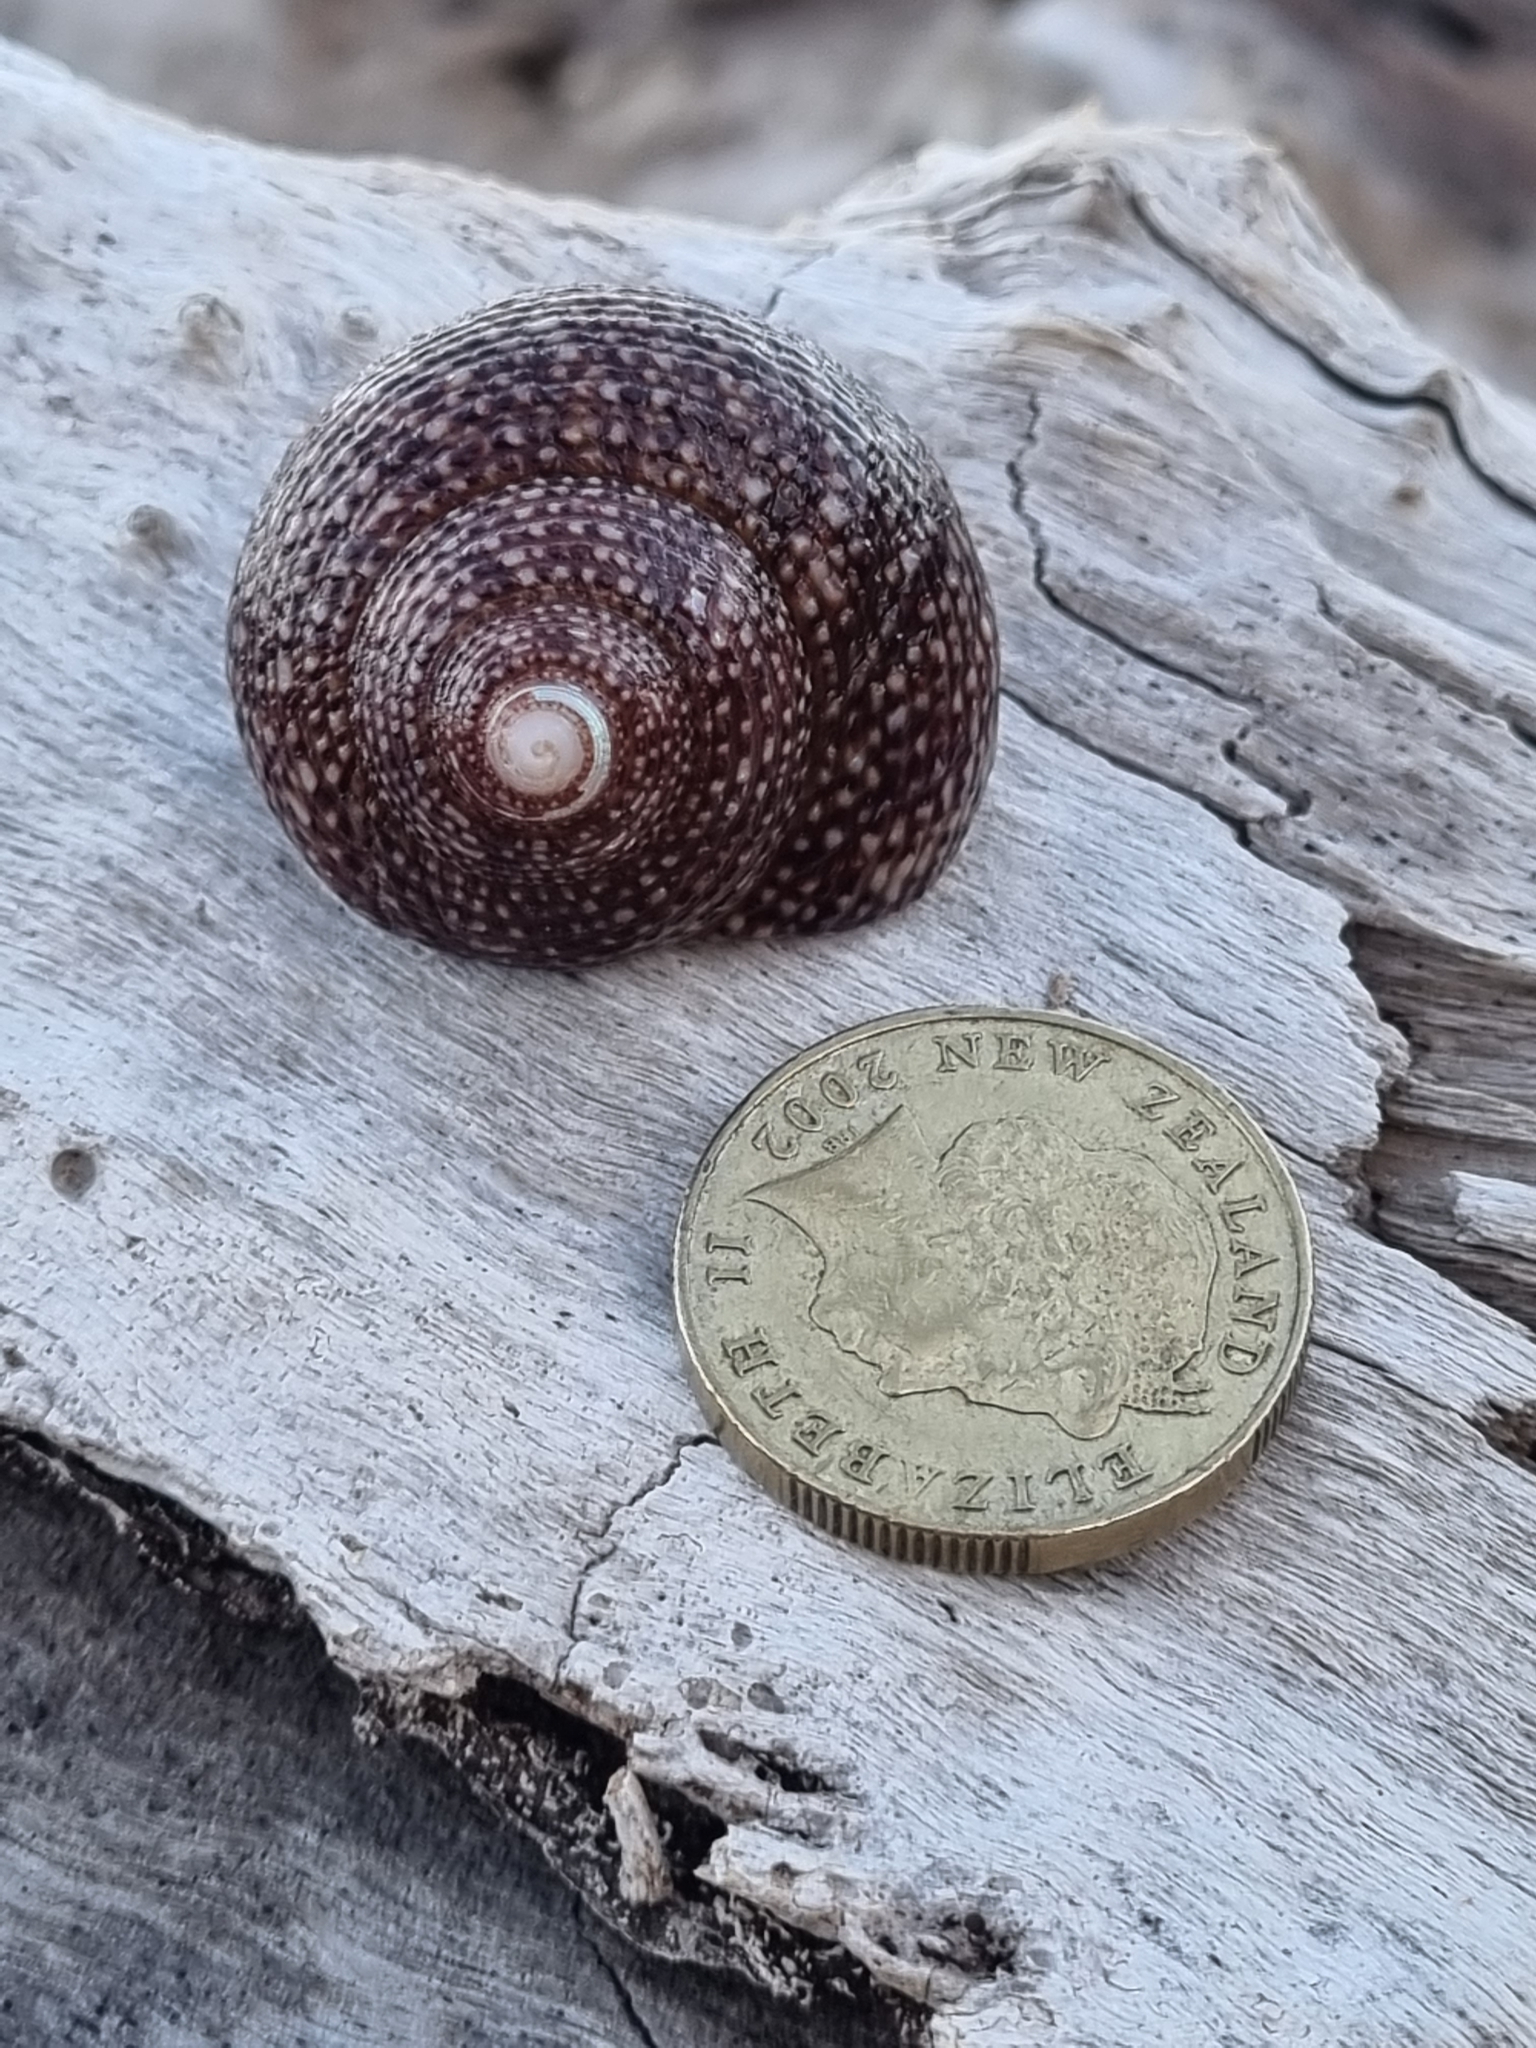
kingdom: Animalia
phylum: Mollusca
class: Gastropoda
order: Trochida
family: Calliostomatidae
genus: Maurea
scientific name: Maurea punctulata
